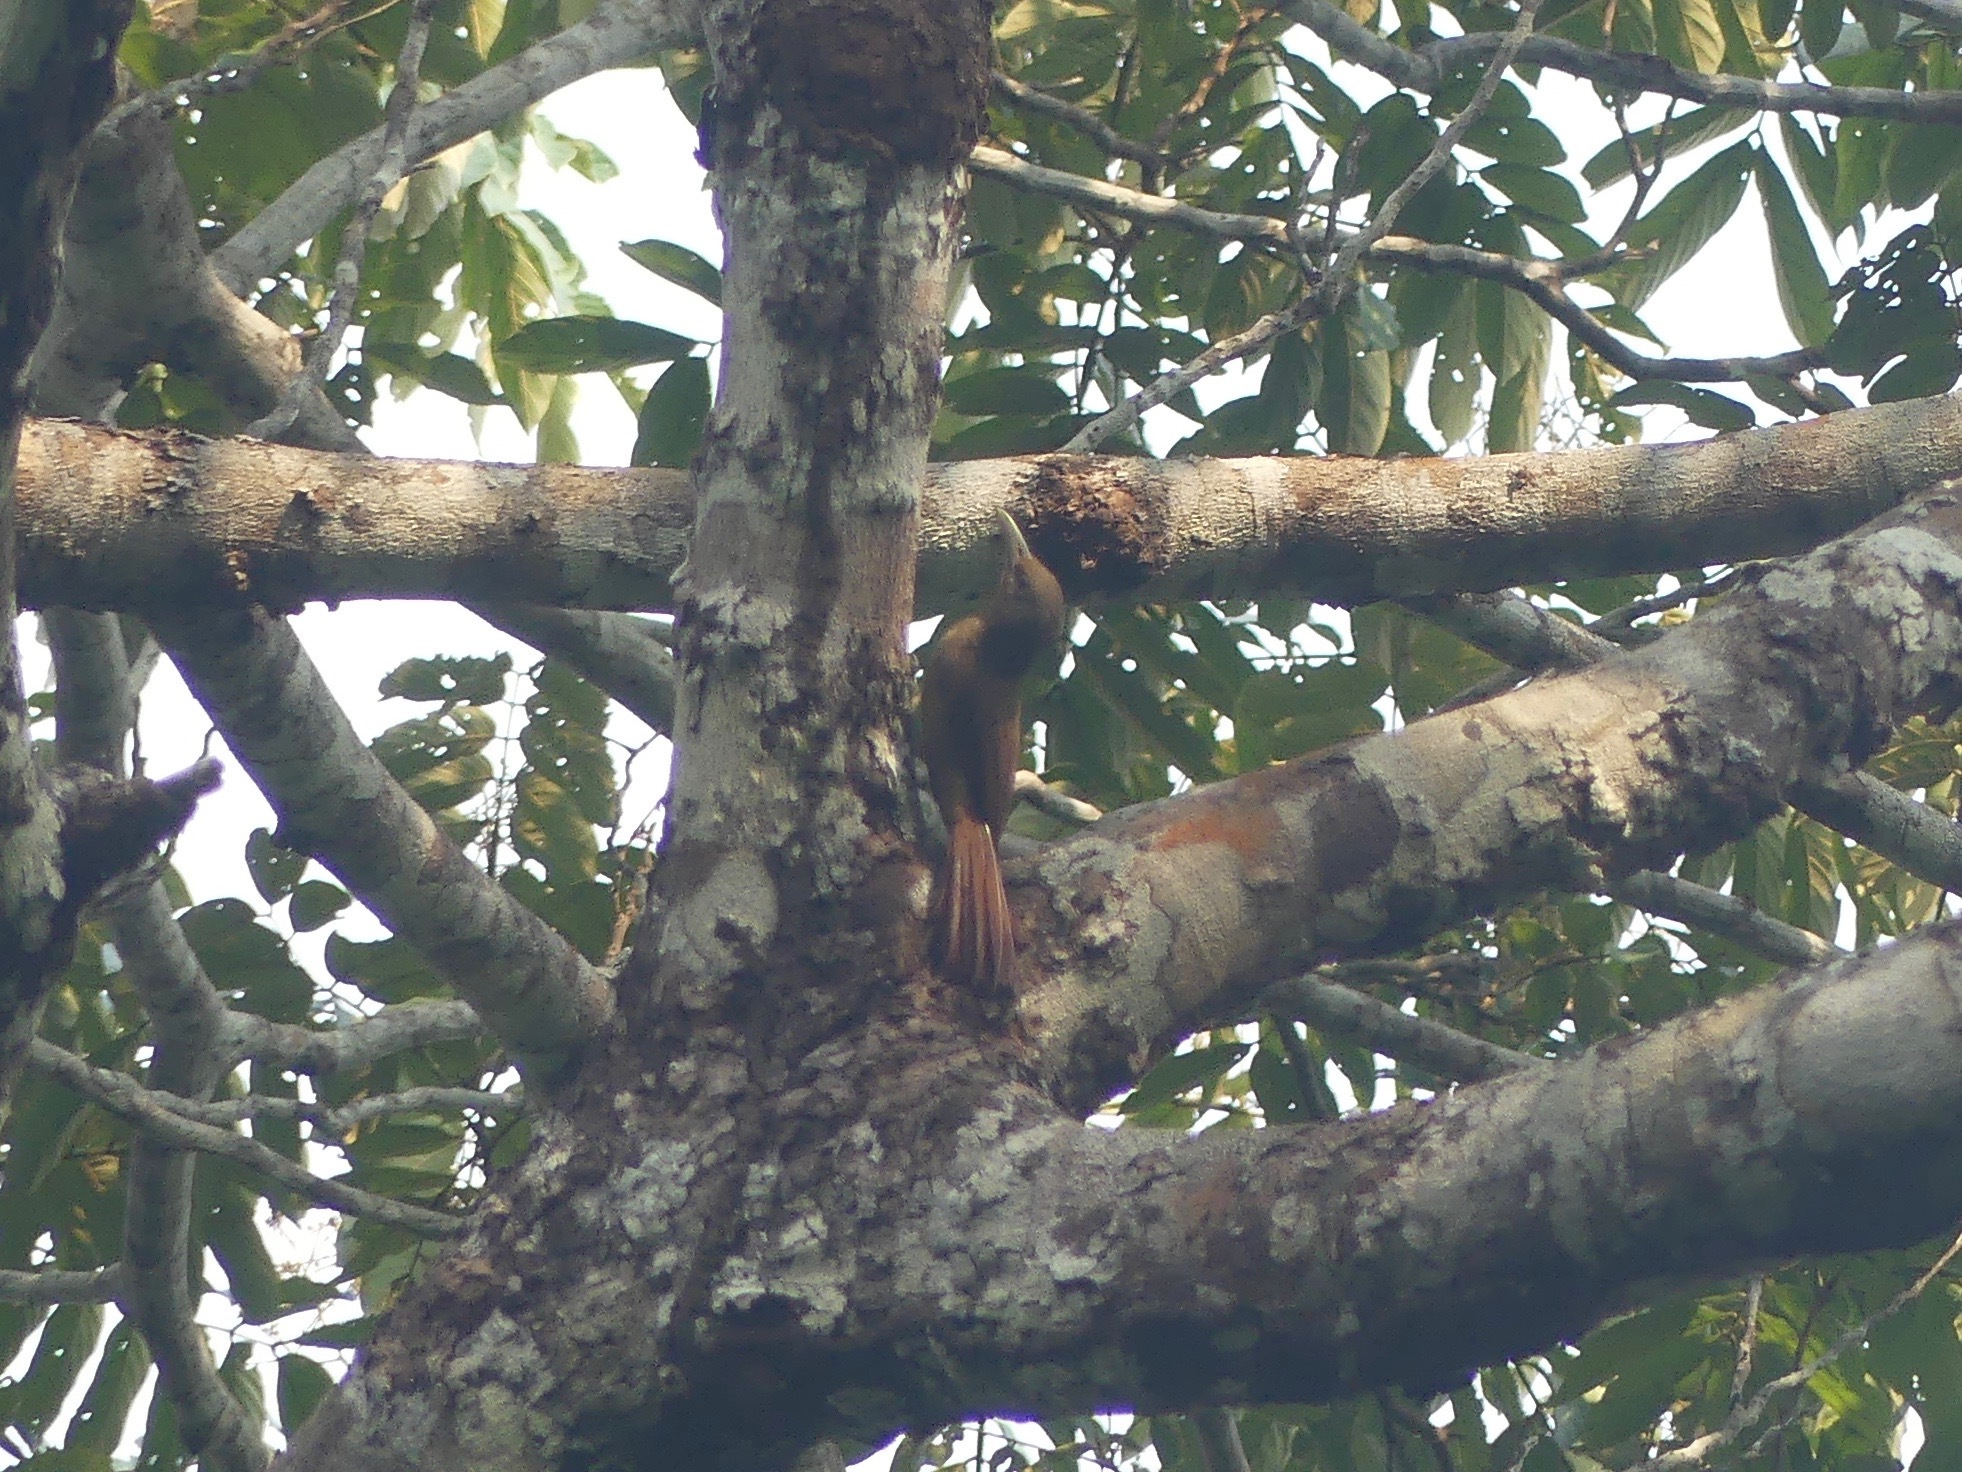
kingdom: Animalia
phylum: Chordata
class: Aves
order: Passeriformes
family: Furnariidae
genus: Dendrexetastes
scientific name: Dendrexetastes rufigula
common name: Cinnamon-throated woodcreeper
